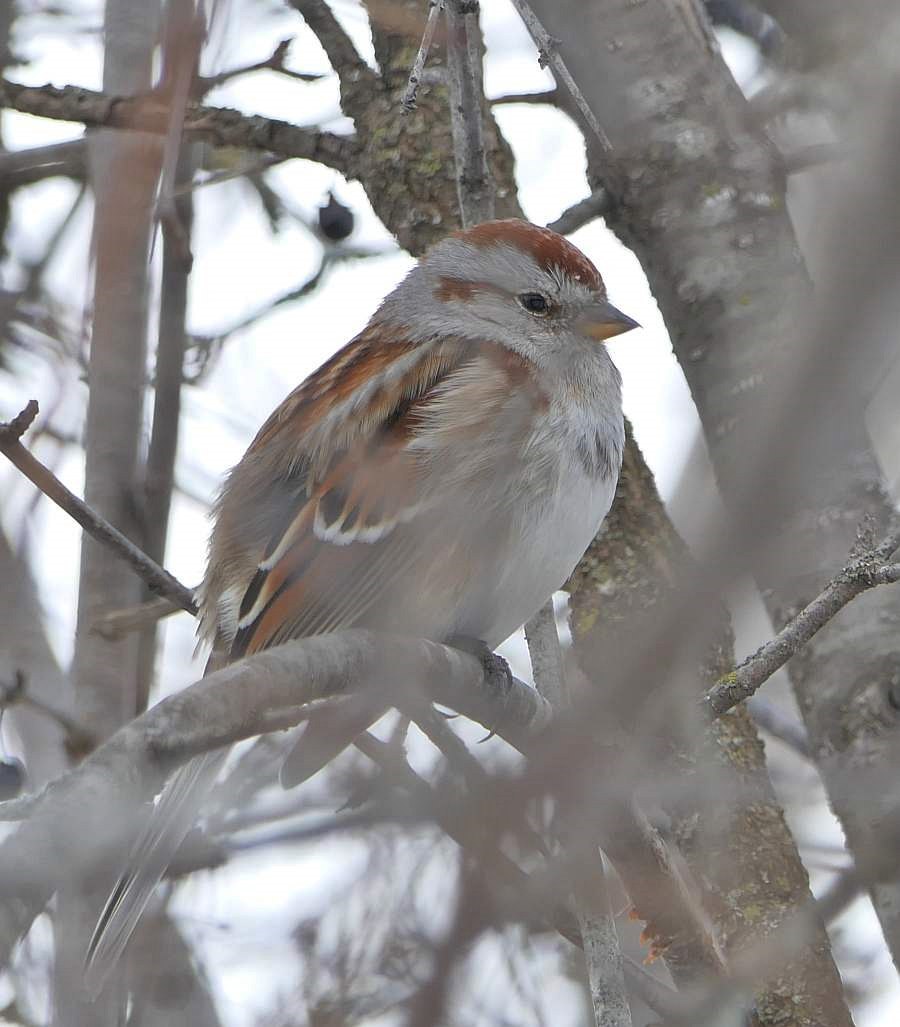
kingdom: Animalia
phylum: Chordata
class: Aves
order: Passeriformes
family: Passerellidae
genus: Spizelloides
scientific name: Spizelloides arborea
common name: American tree sparrow
